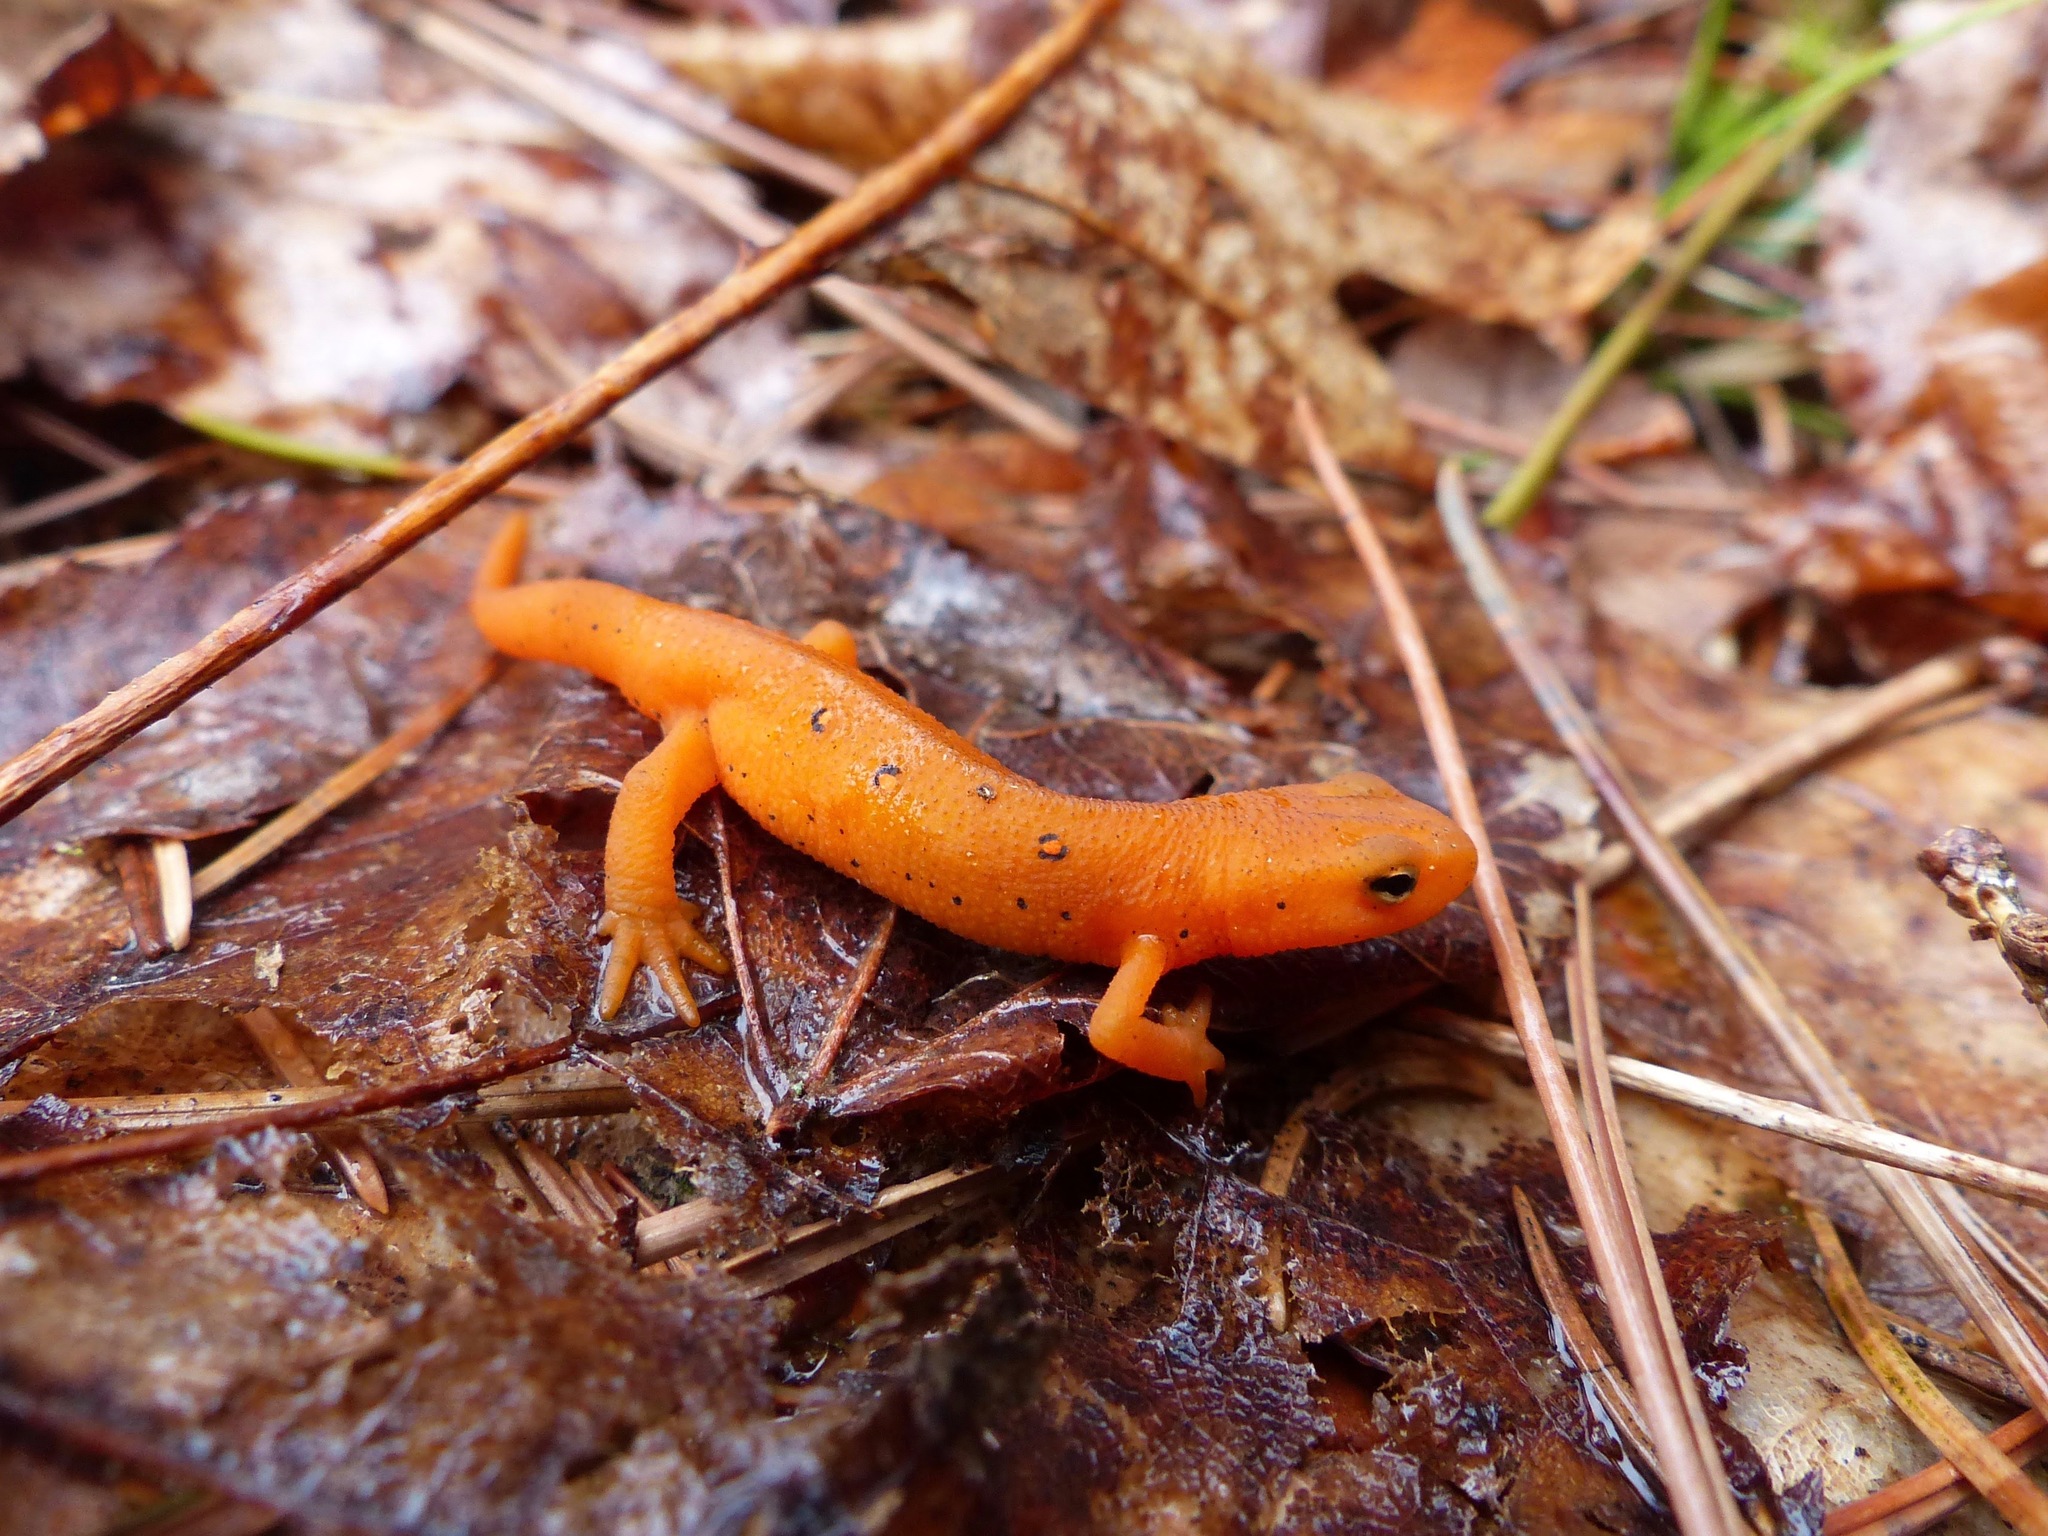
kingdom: Animalia
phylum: Chordata
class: Amphibia
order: Caudata
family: Salamandridae
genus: Notophthalmus
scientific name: Notophthalmus viridescens
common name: Eastern newt
